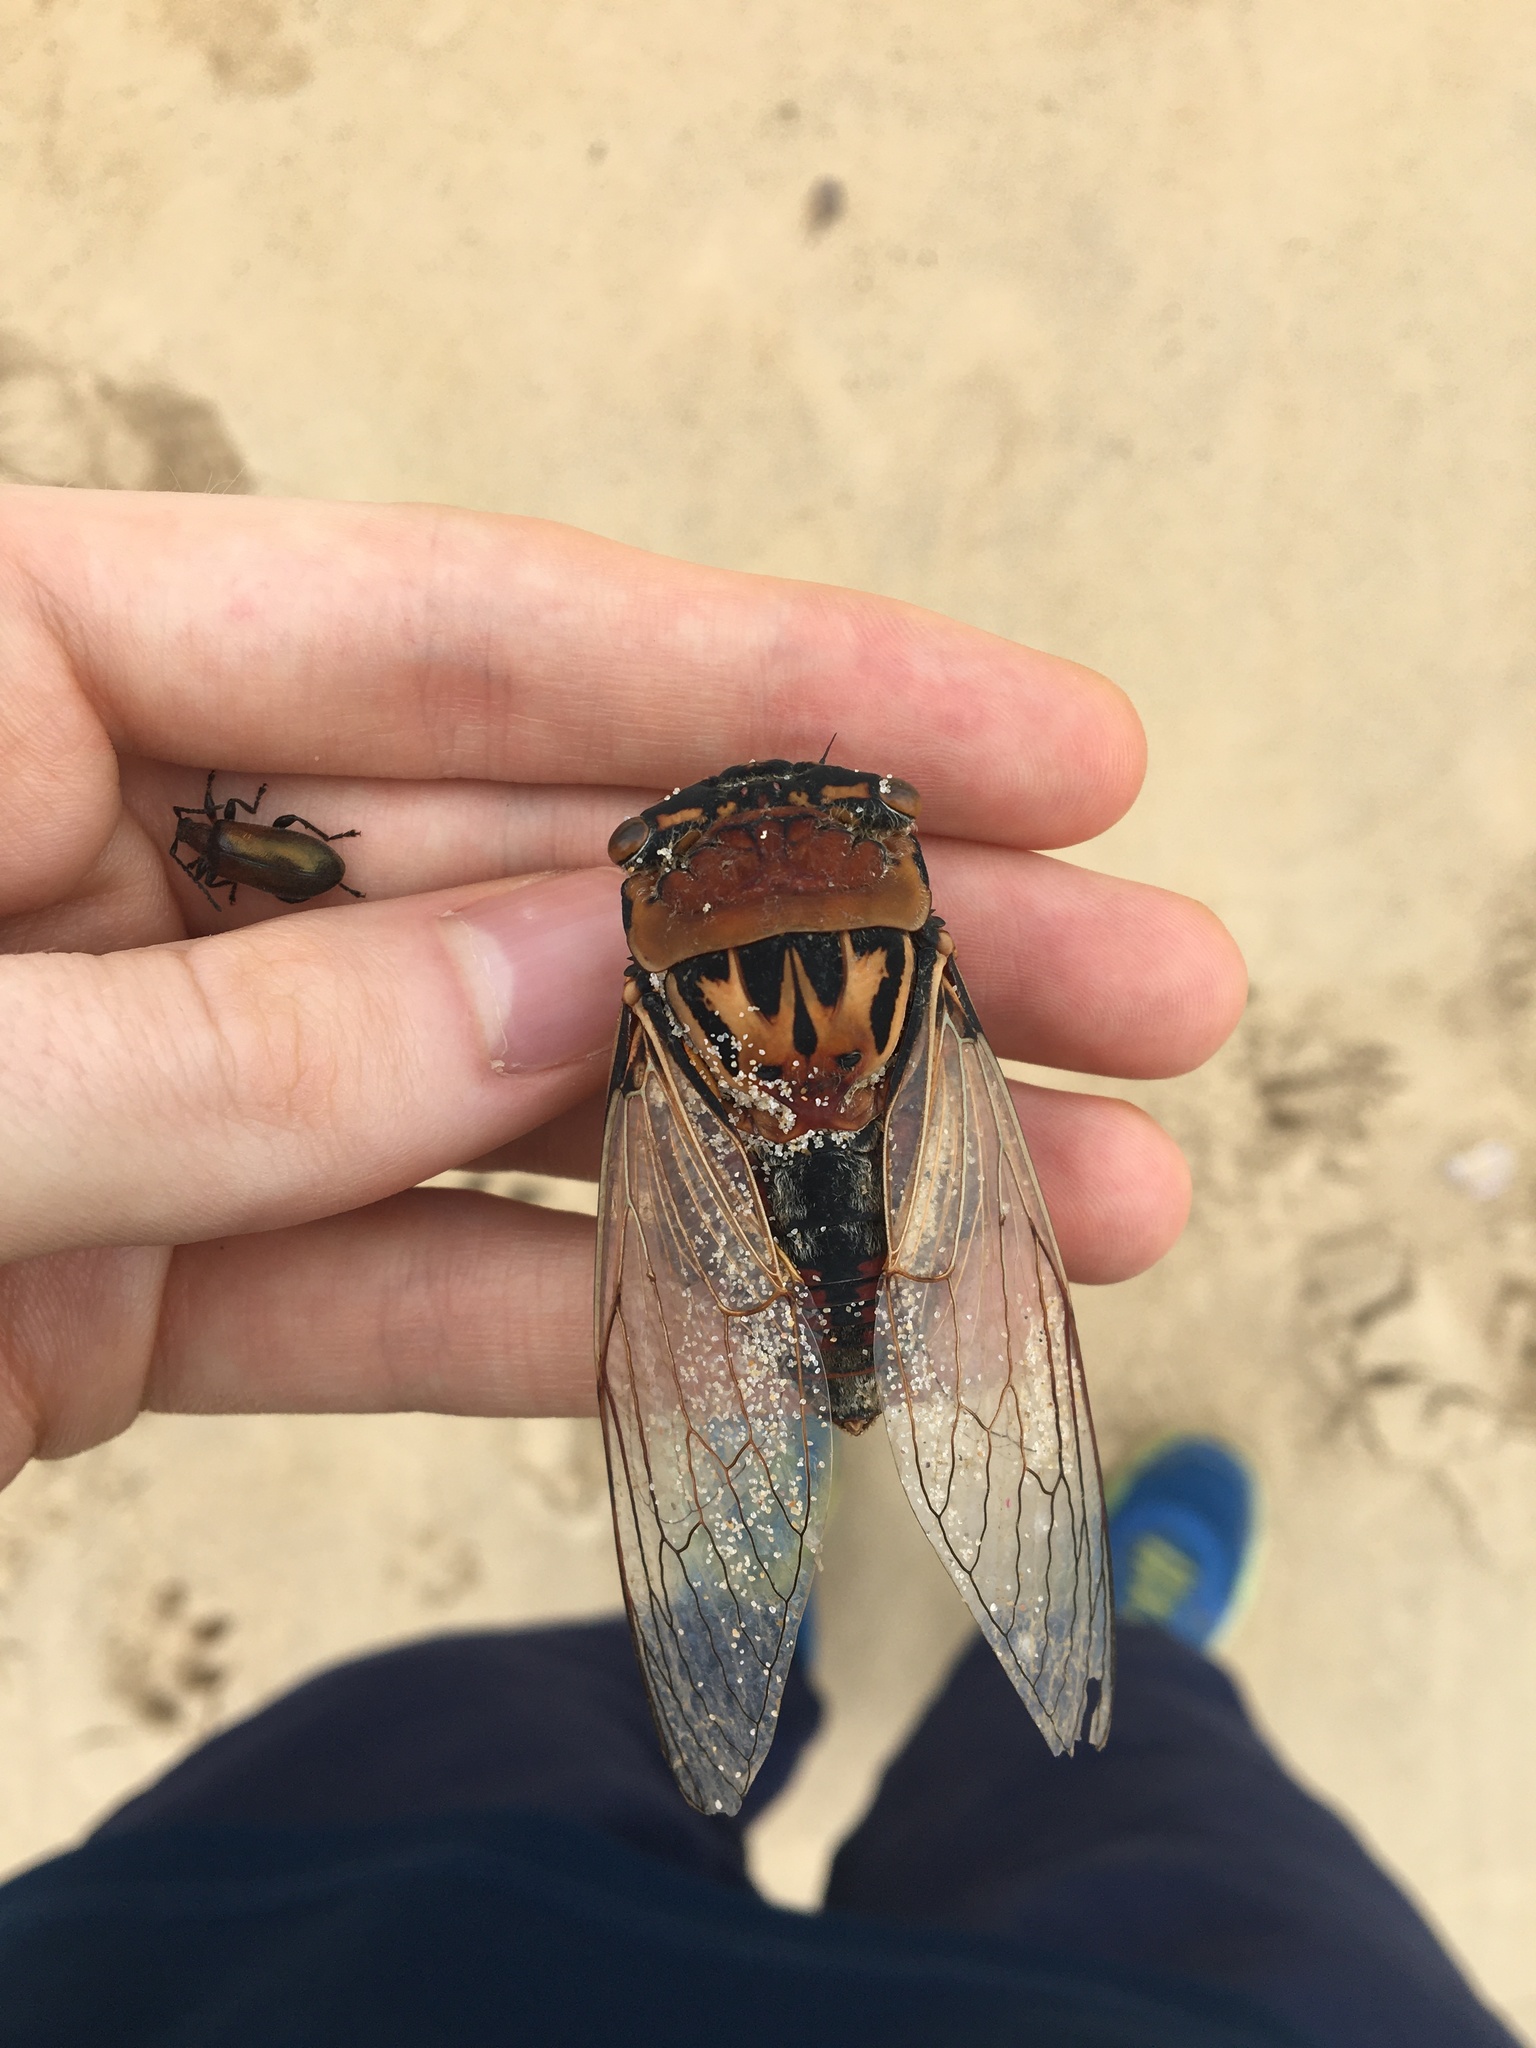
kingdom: Animalia
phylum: Arthropoda
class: Insecta
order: Hemiptera
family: Cicadidae
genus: Thopha
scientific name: Thopha saccata
